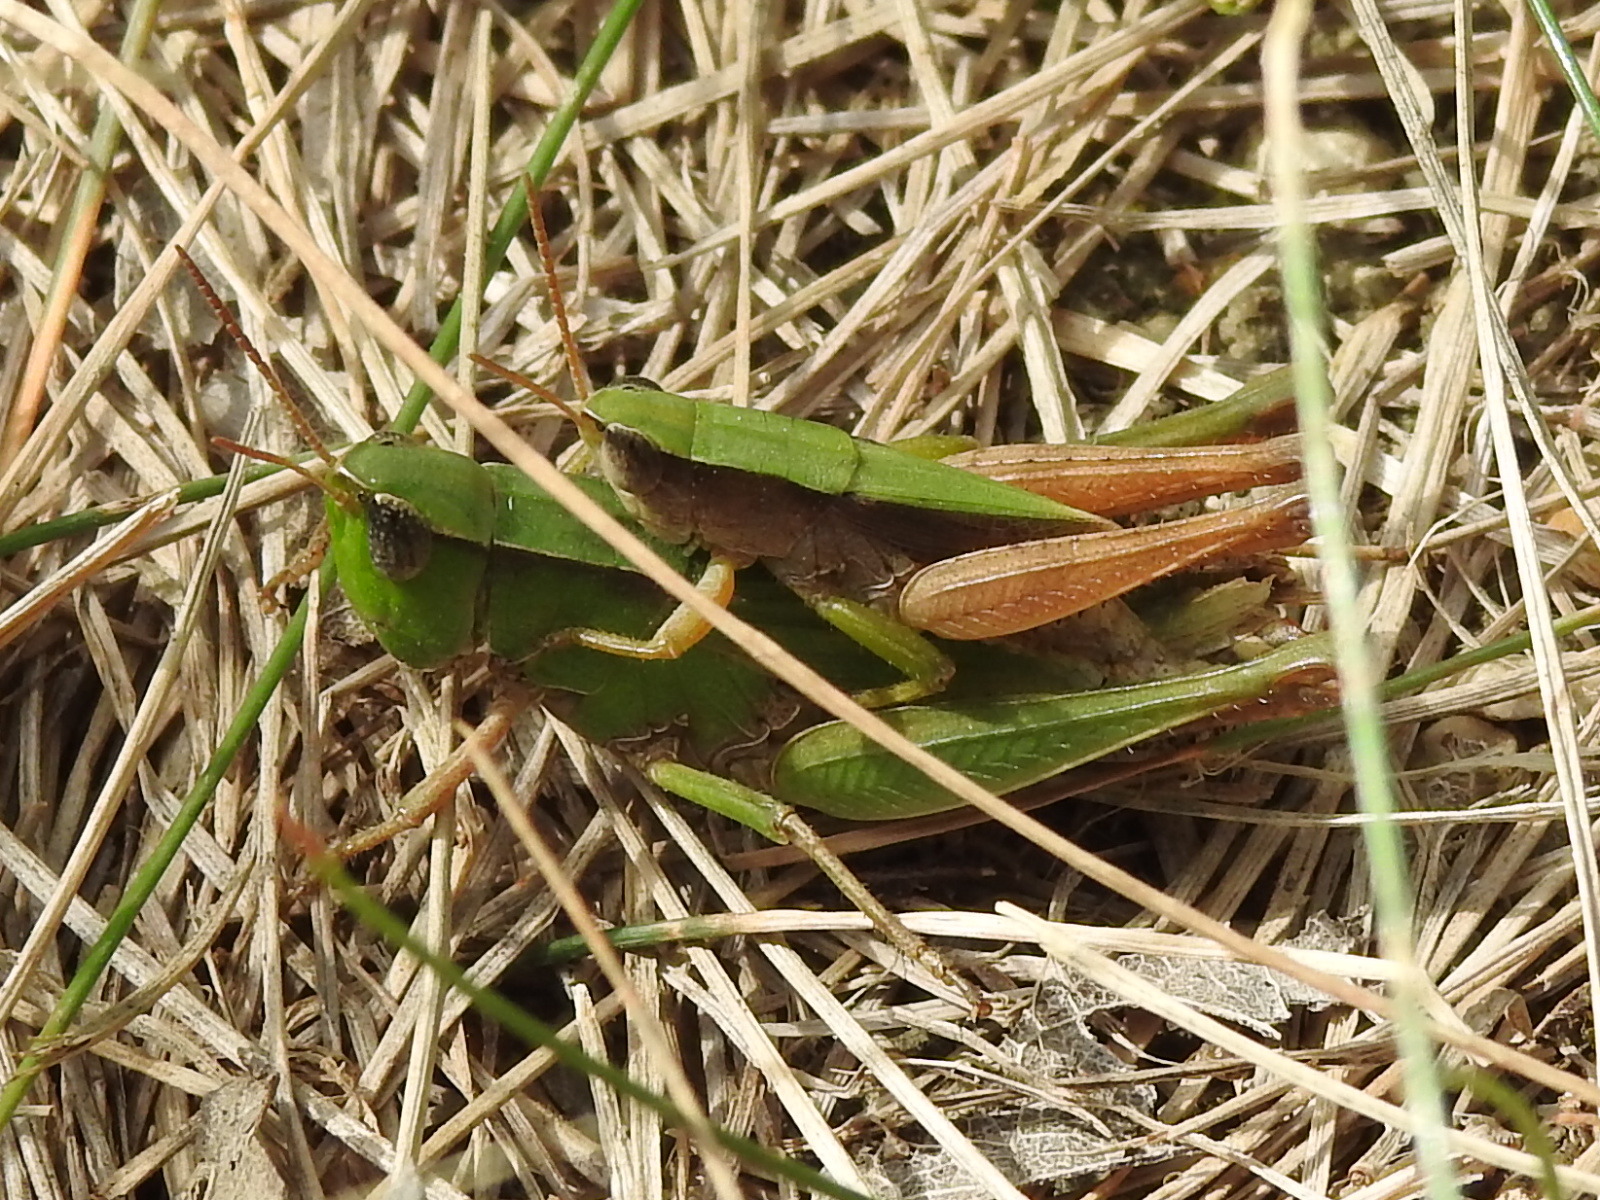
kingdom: Animalia
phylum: Arthropoda
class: Insecta
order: Orthoptera
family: Acrididae
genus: Dichromorpha
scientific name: Dichromorpha viridis
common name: Short-winged green grasshopper
